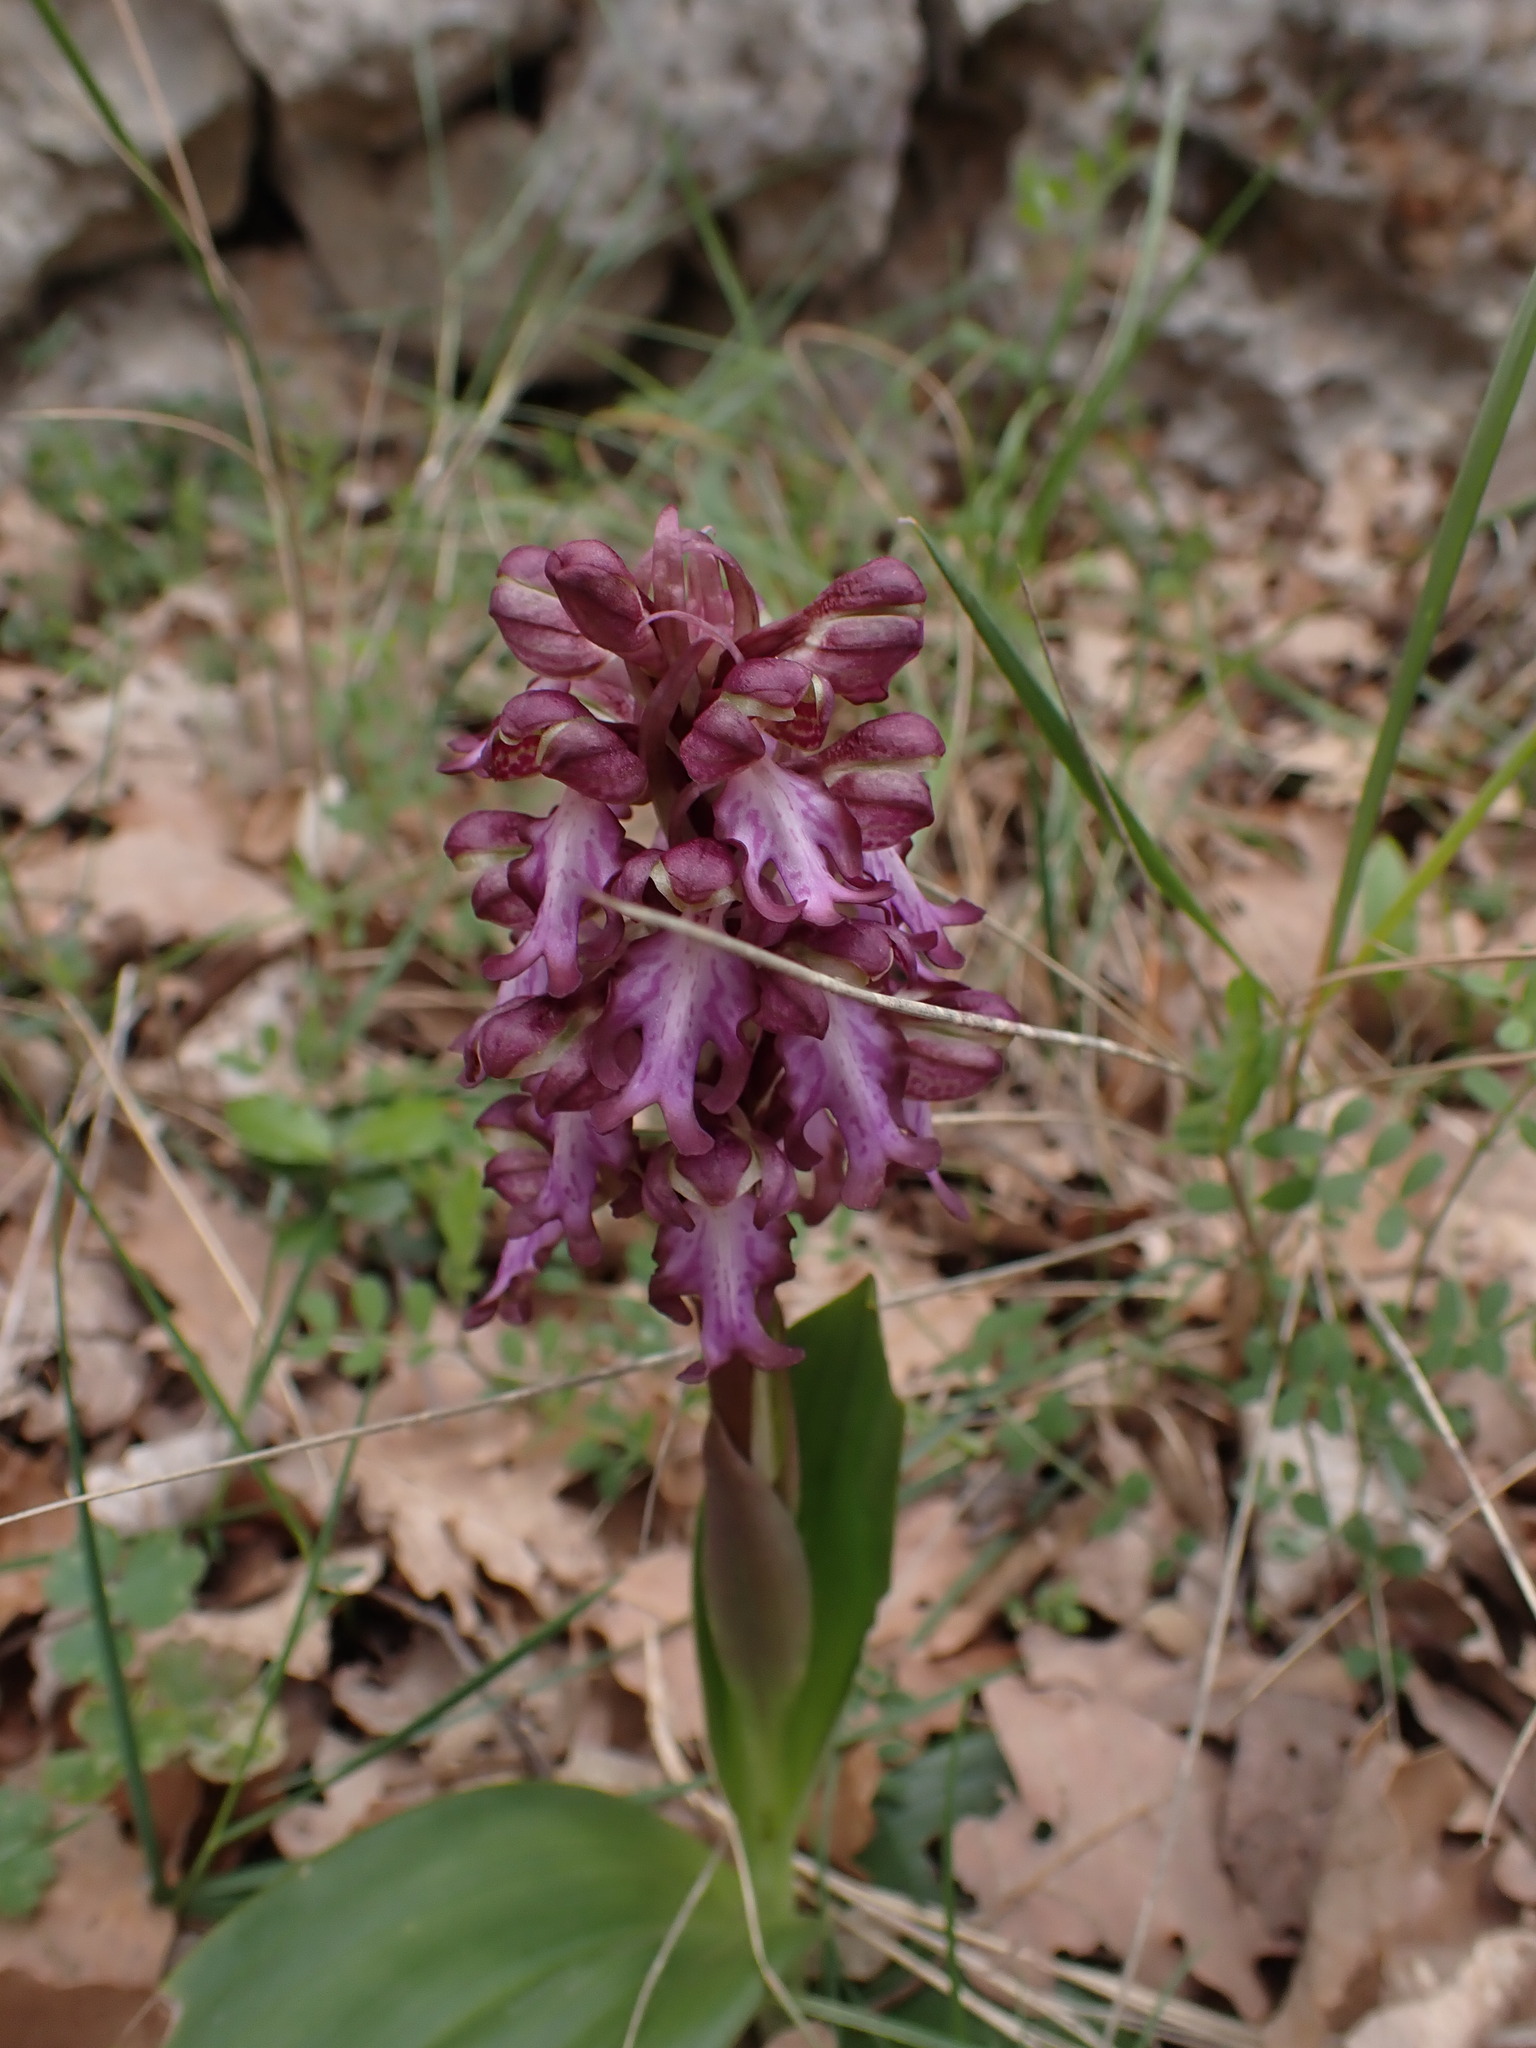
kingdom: Plantae
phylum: Tracheophyta
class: Liliopsida
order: Asparagales
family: Orchidaceae
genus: Himantoglossum
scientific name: Himantoglossum robertianum
